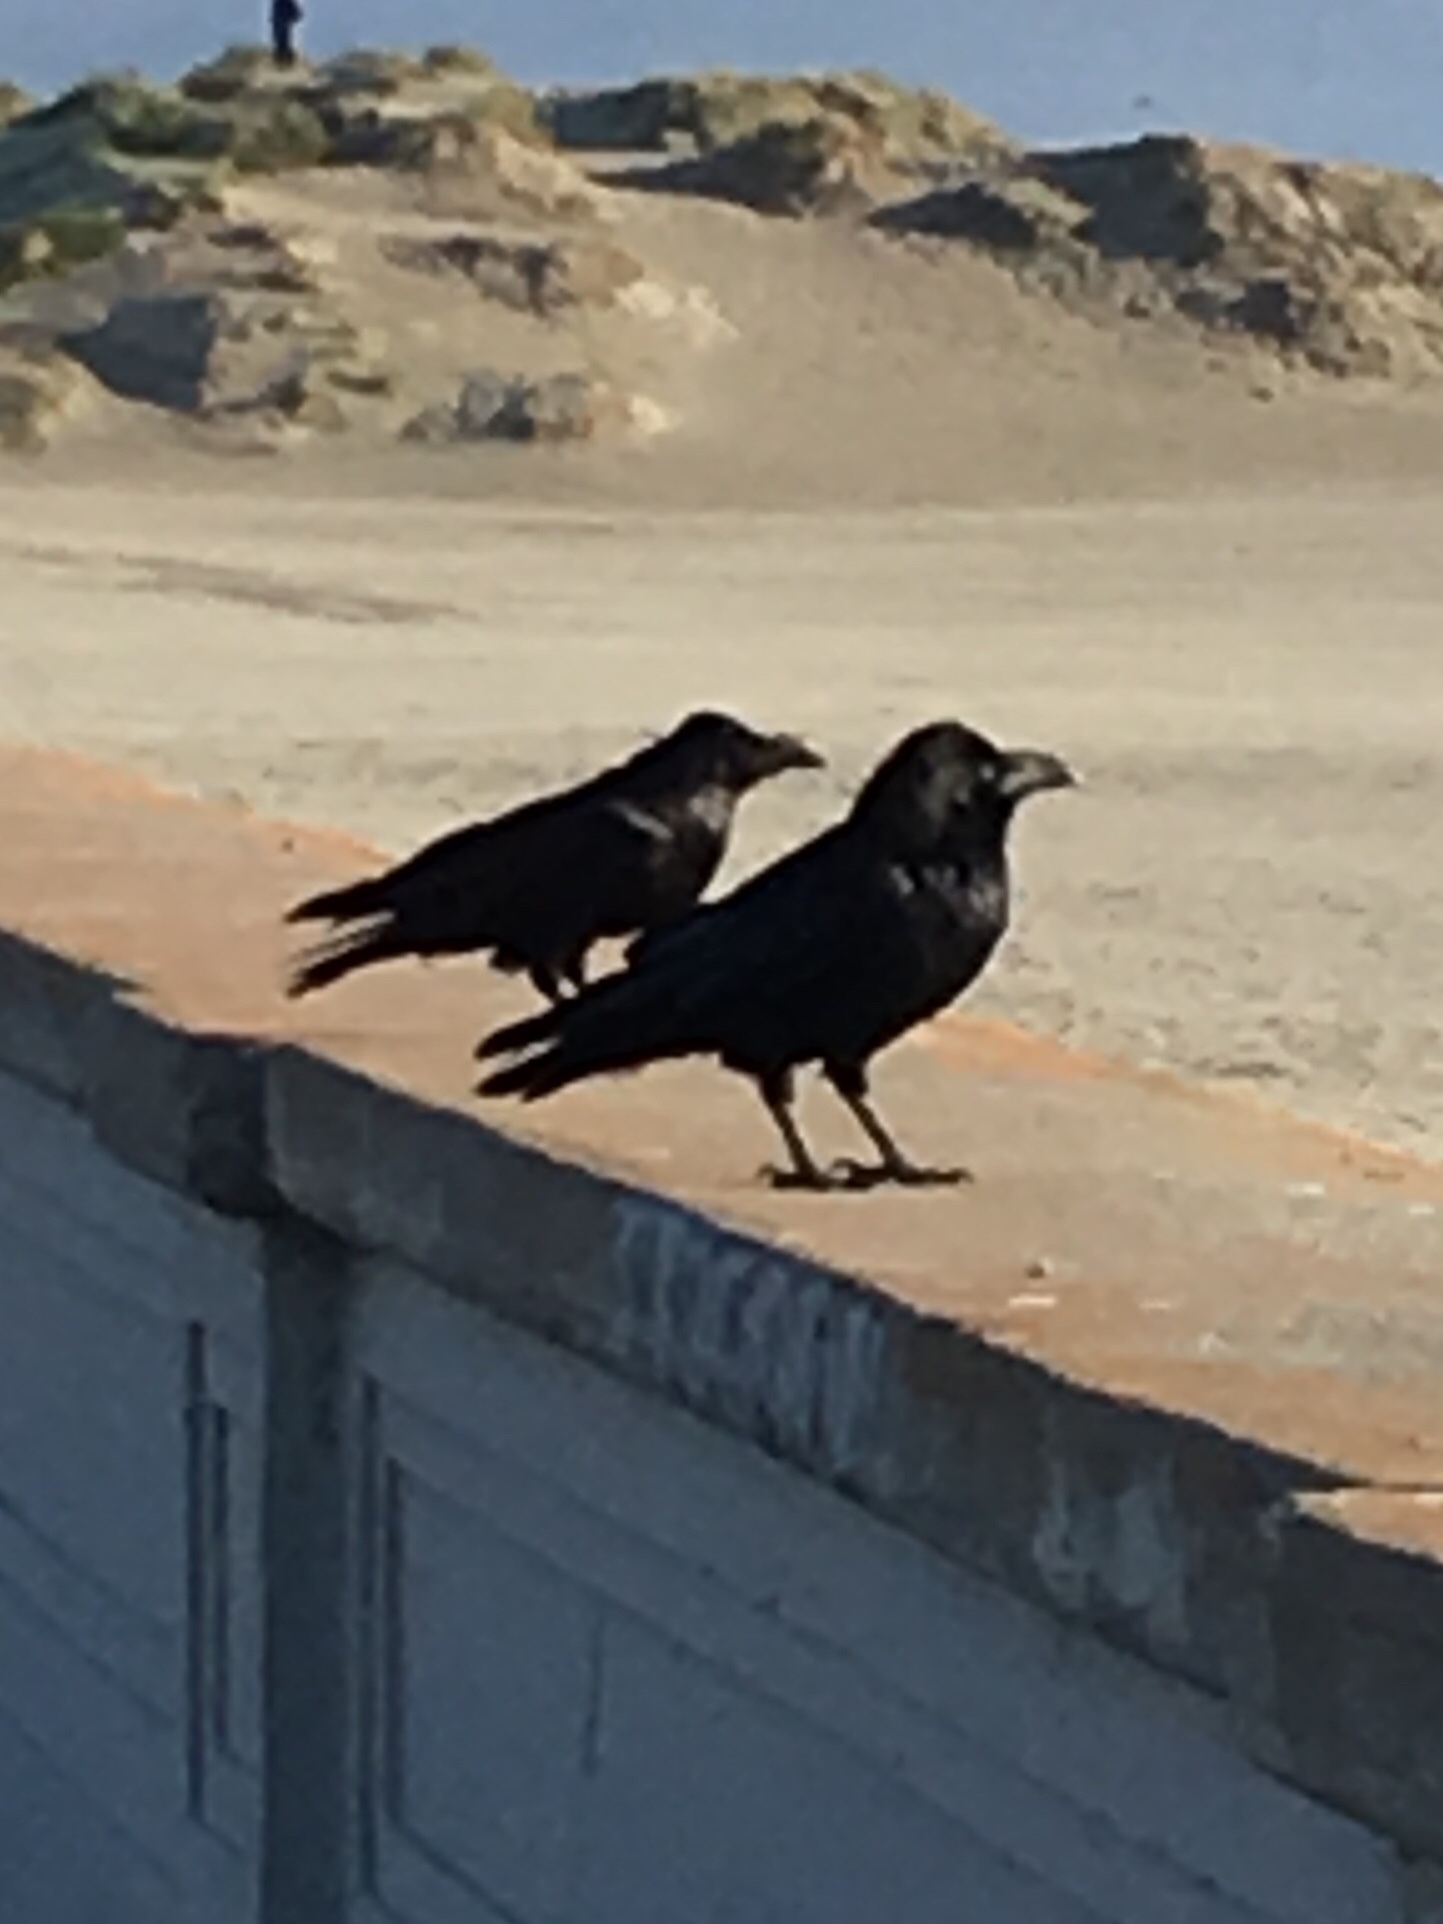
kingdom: Animalia
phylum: Chordata
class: Aves
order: Passeriformes
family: Corvidae
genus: Corvus
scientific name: Corvus corax
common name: Common raven
